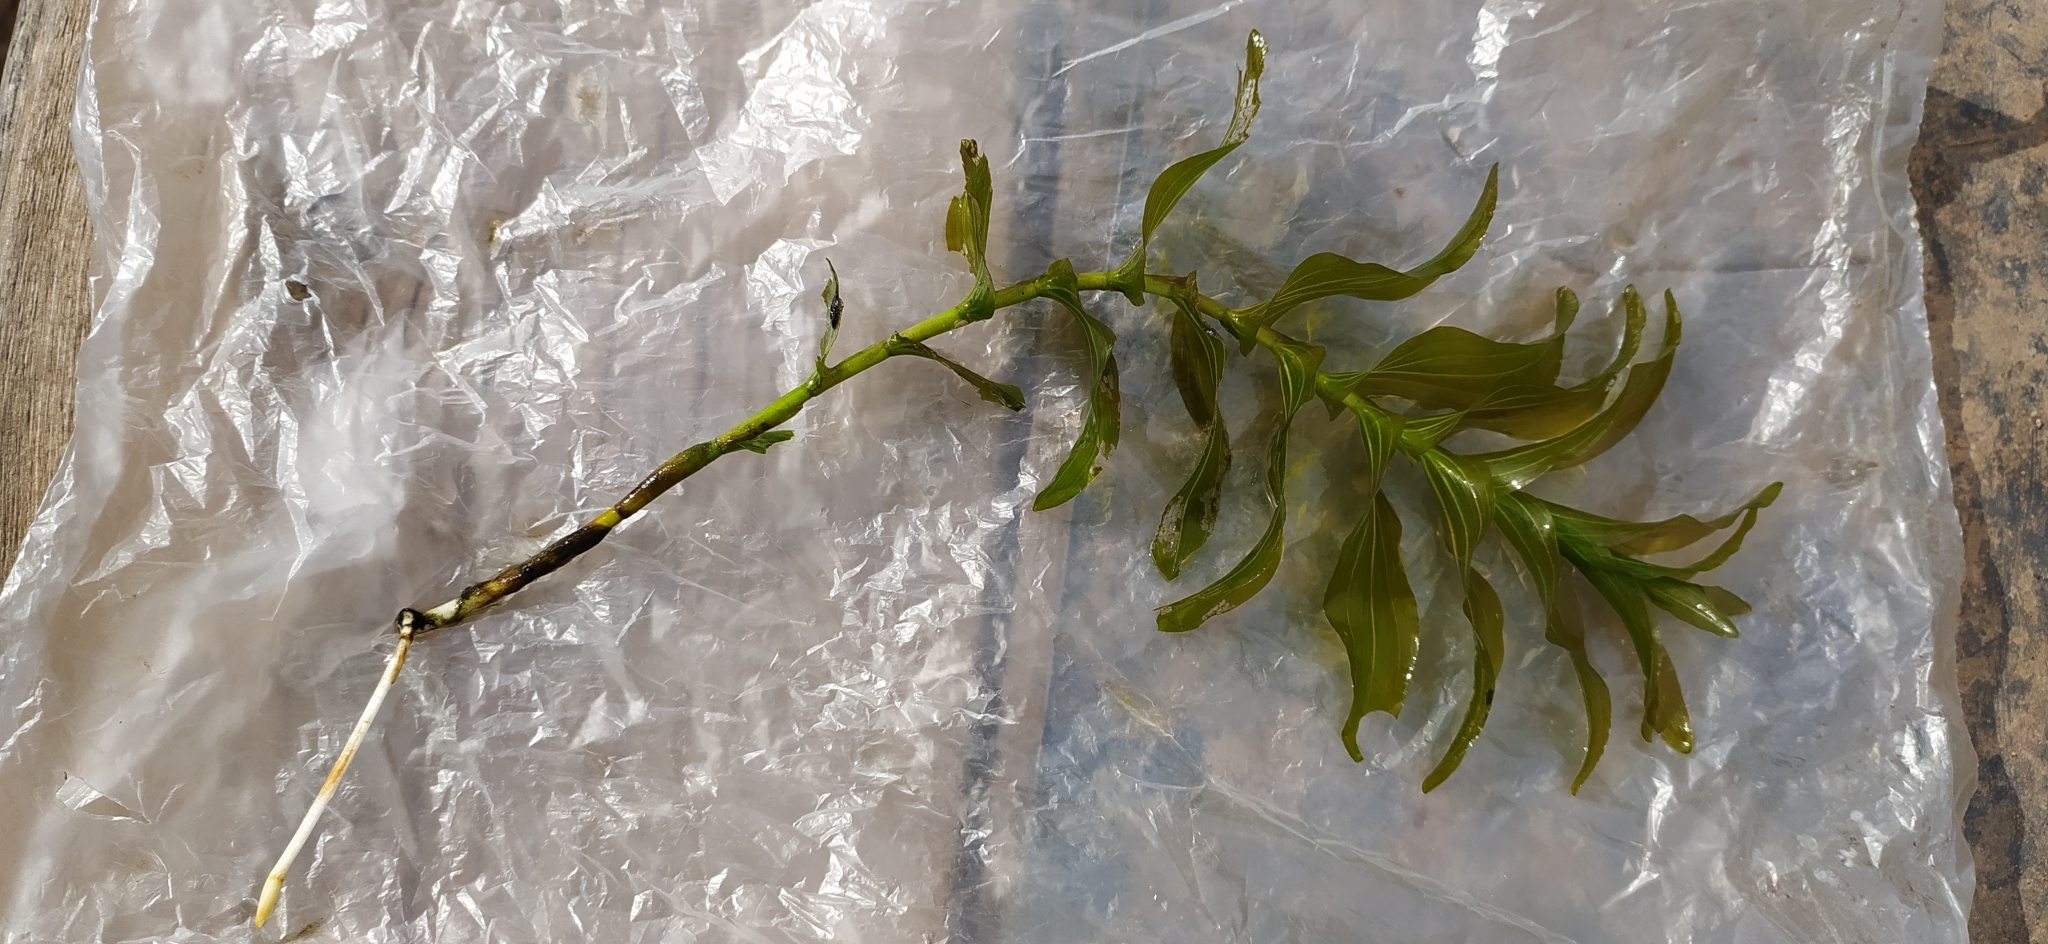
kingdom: Plantae
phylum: Tracheophyta
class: Liliopsida
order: Alismatales
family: Potamogetonaceae
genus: Potamogeton
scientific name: Potamogeton perfoliatus
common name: Perfoliate pondweed
